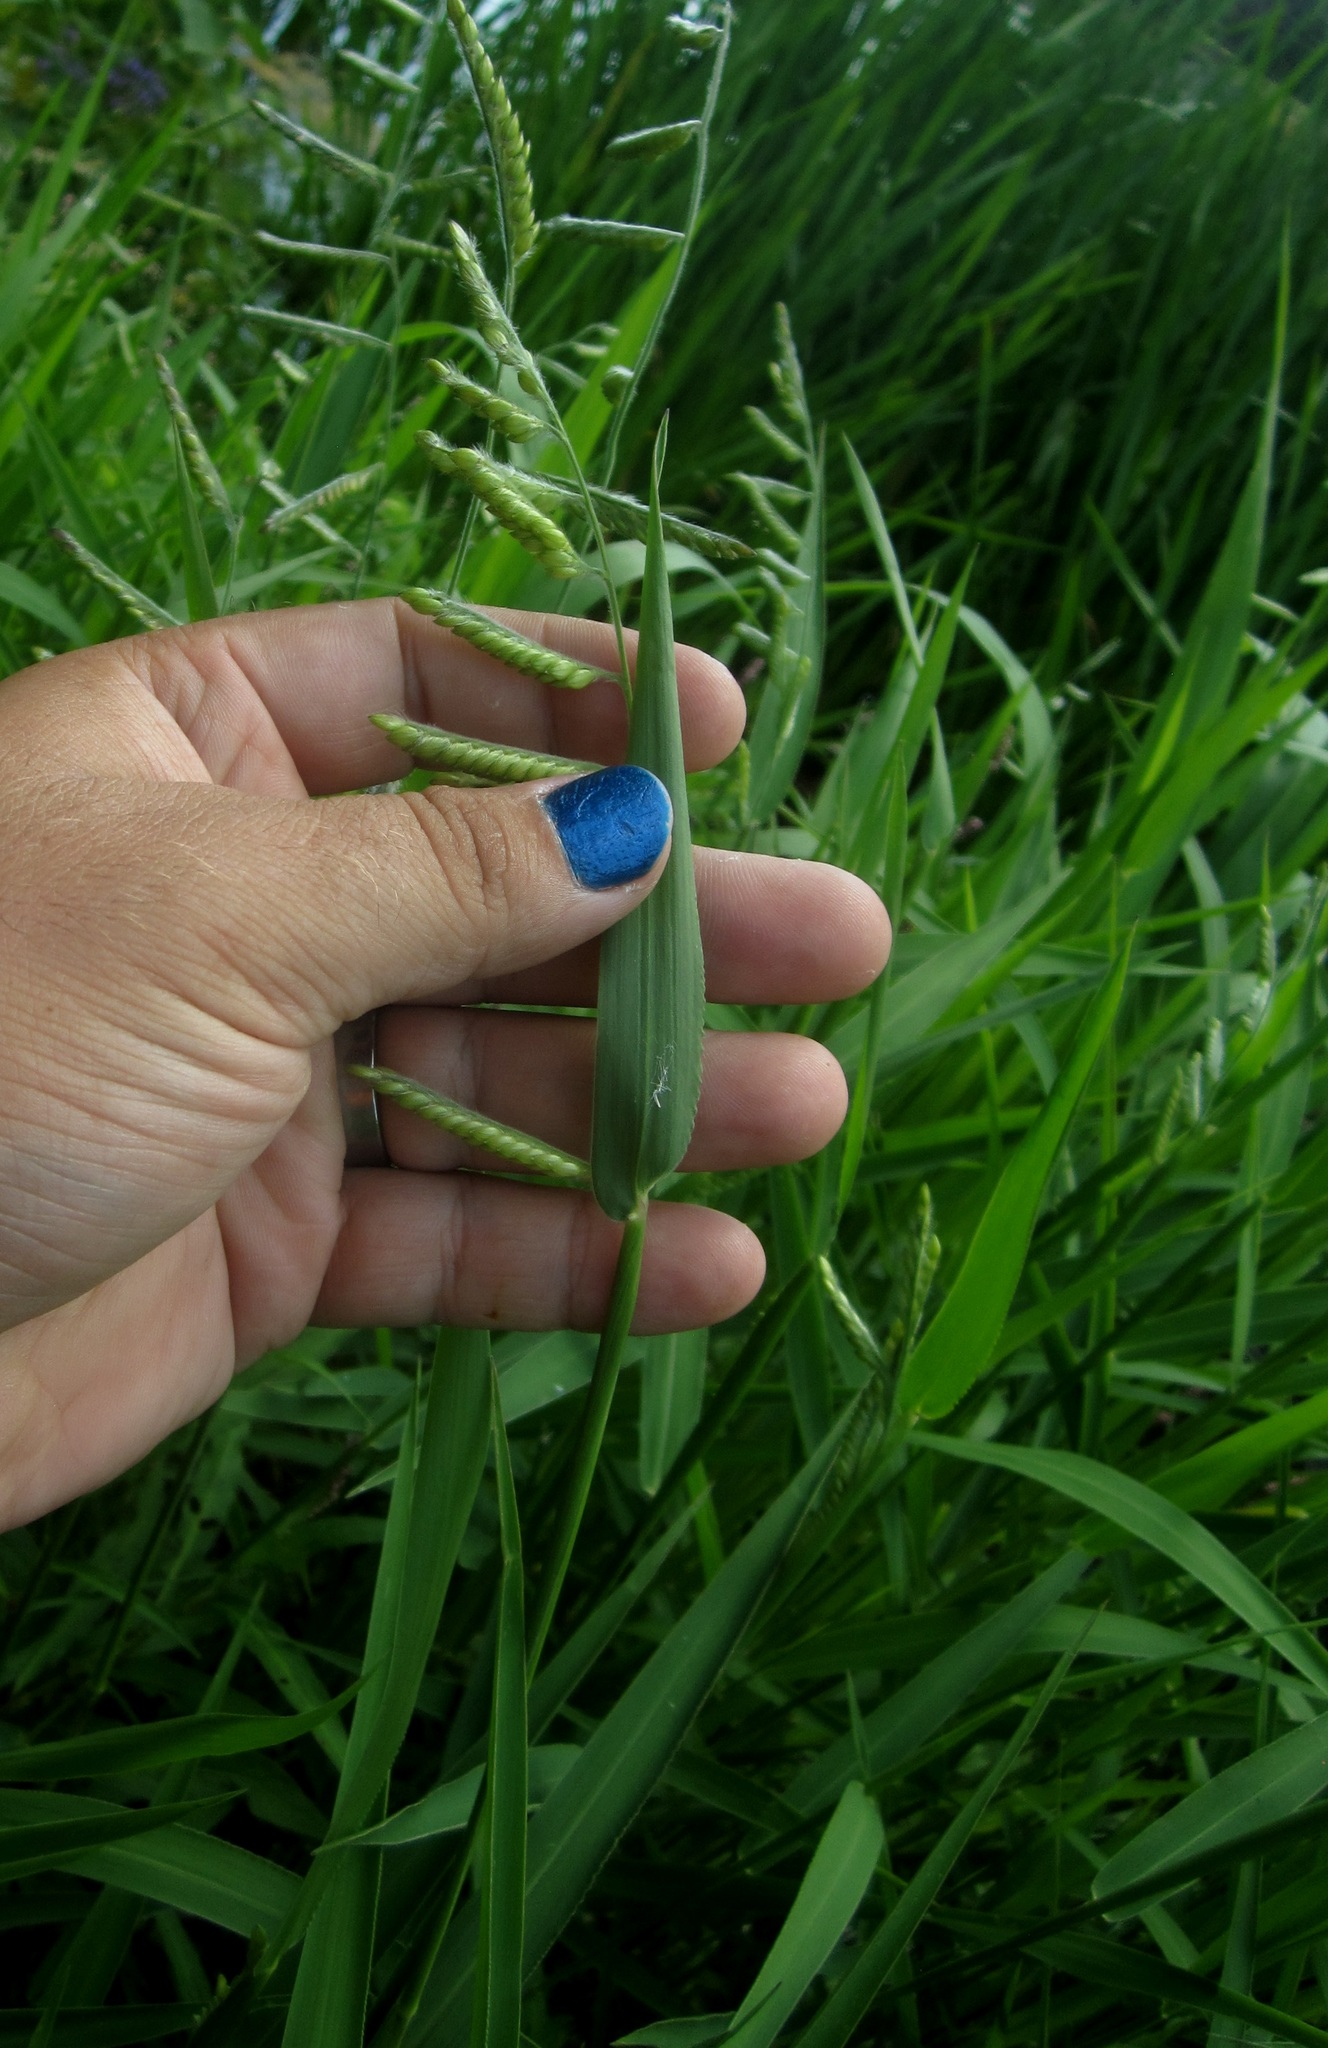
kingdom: Plantae
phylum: Tracheophyta
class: Liliopsida
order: Poales
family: Poaceae
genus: Eriochloa
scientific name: Eriochloa villosa
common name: Hairy cupgrass
